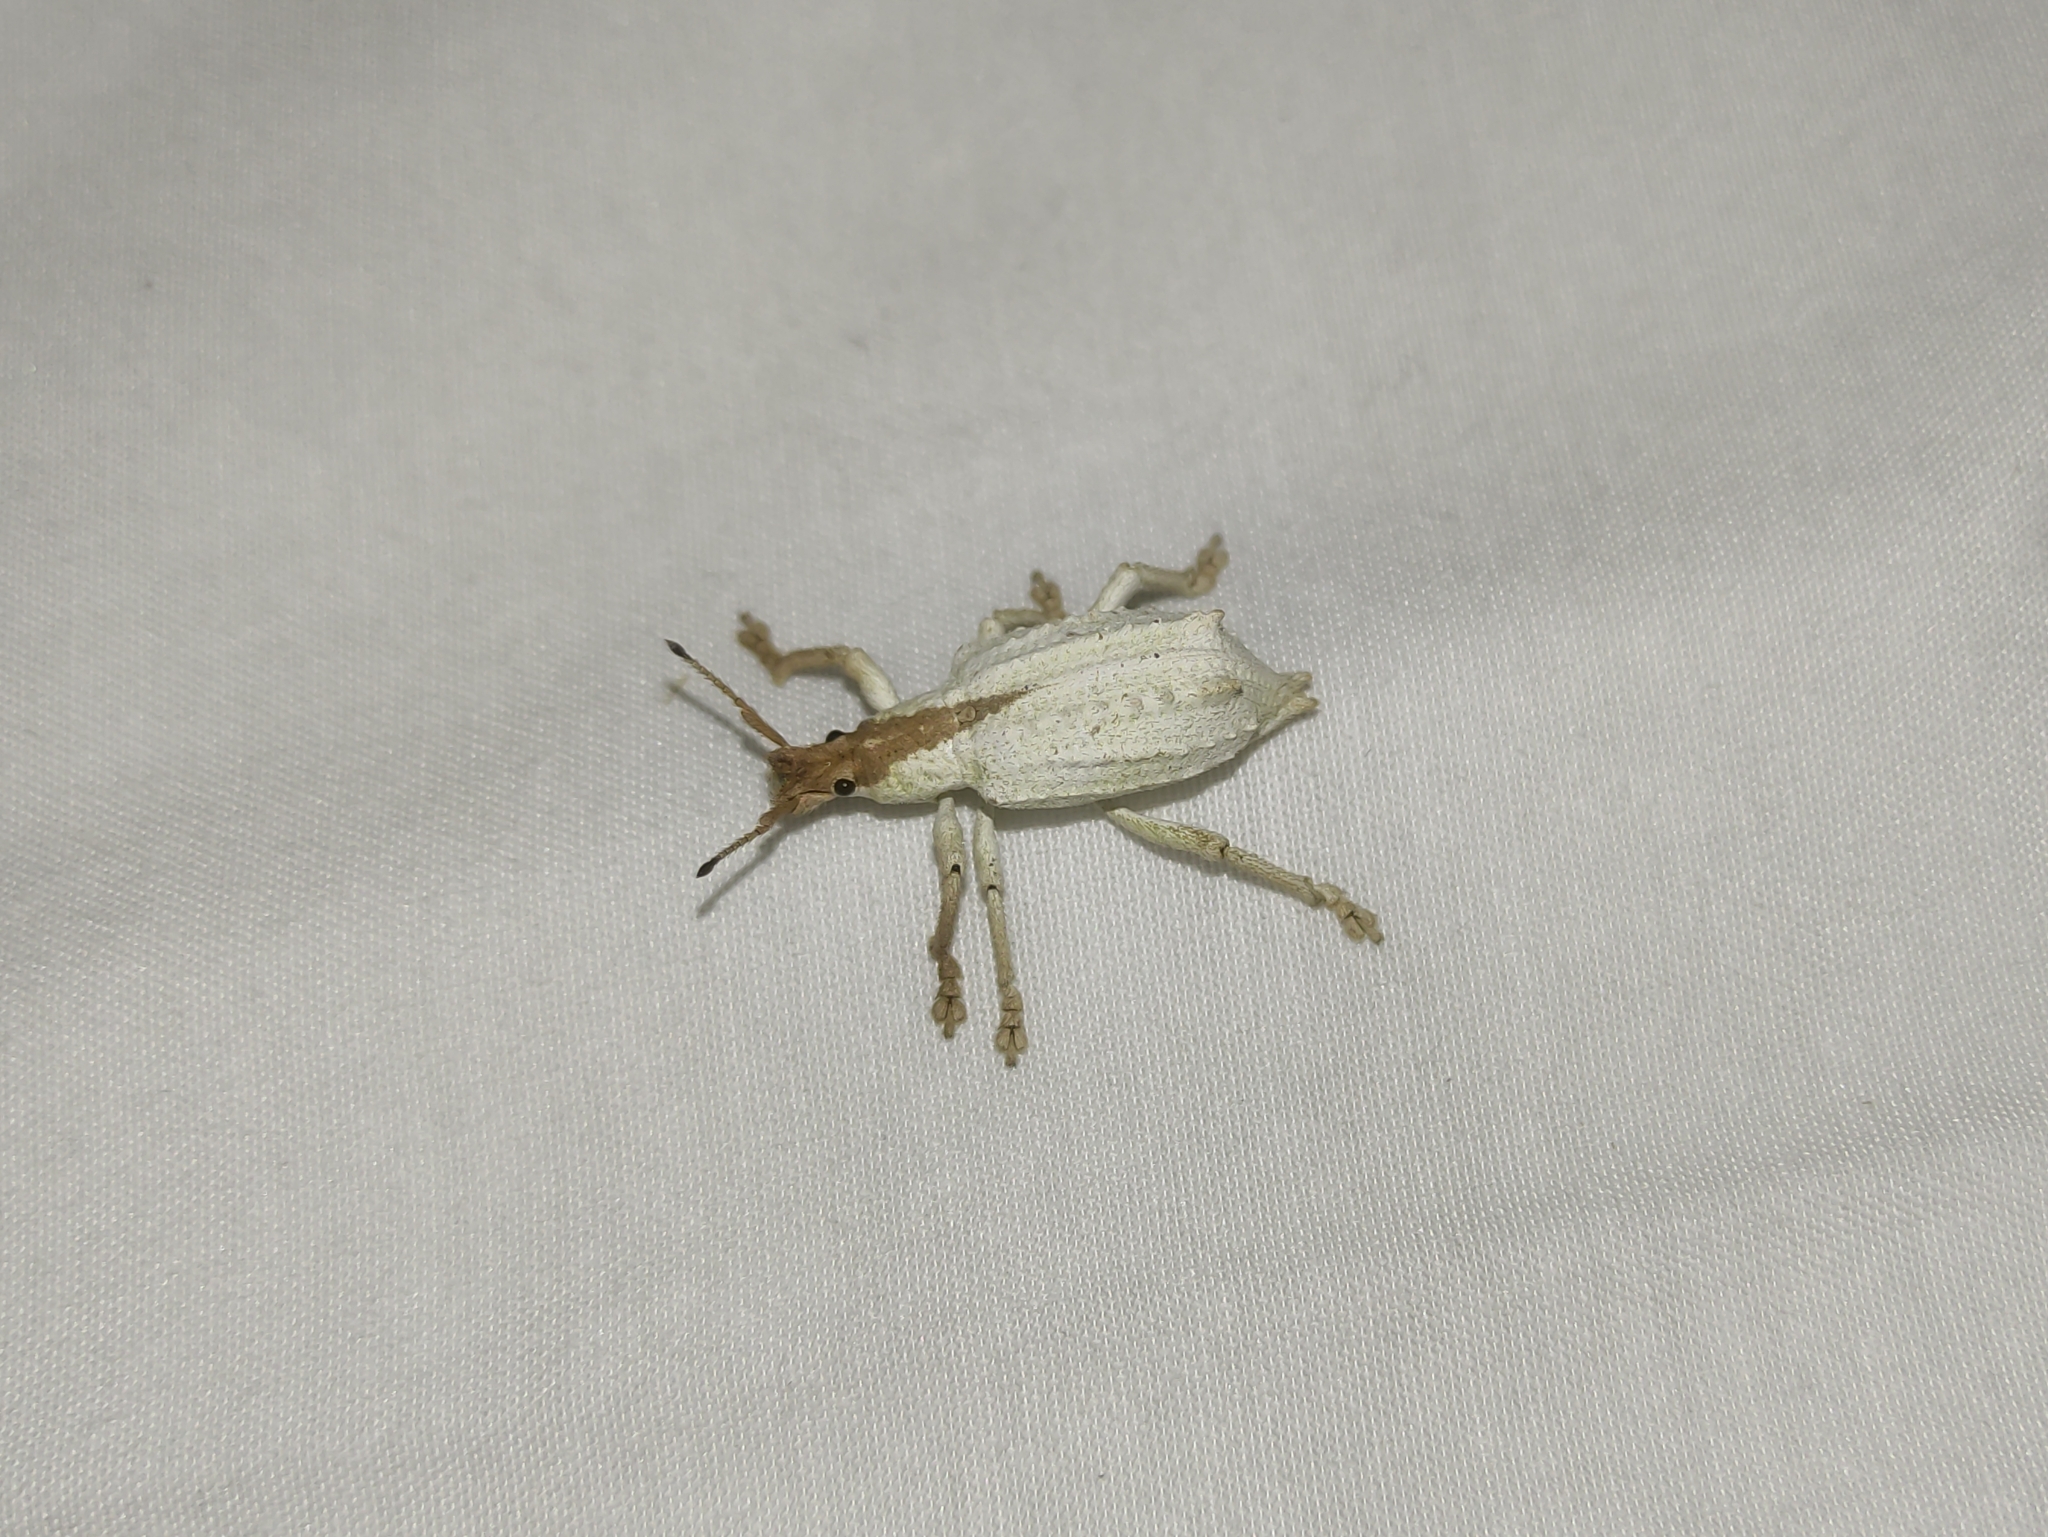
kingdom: Animalia
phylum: Arthropoda
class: Insecta
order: Coleoptera
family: Curculionidae
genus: Compsus
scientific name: Compsus niveus
